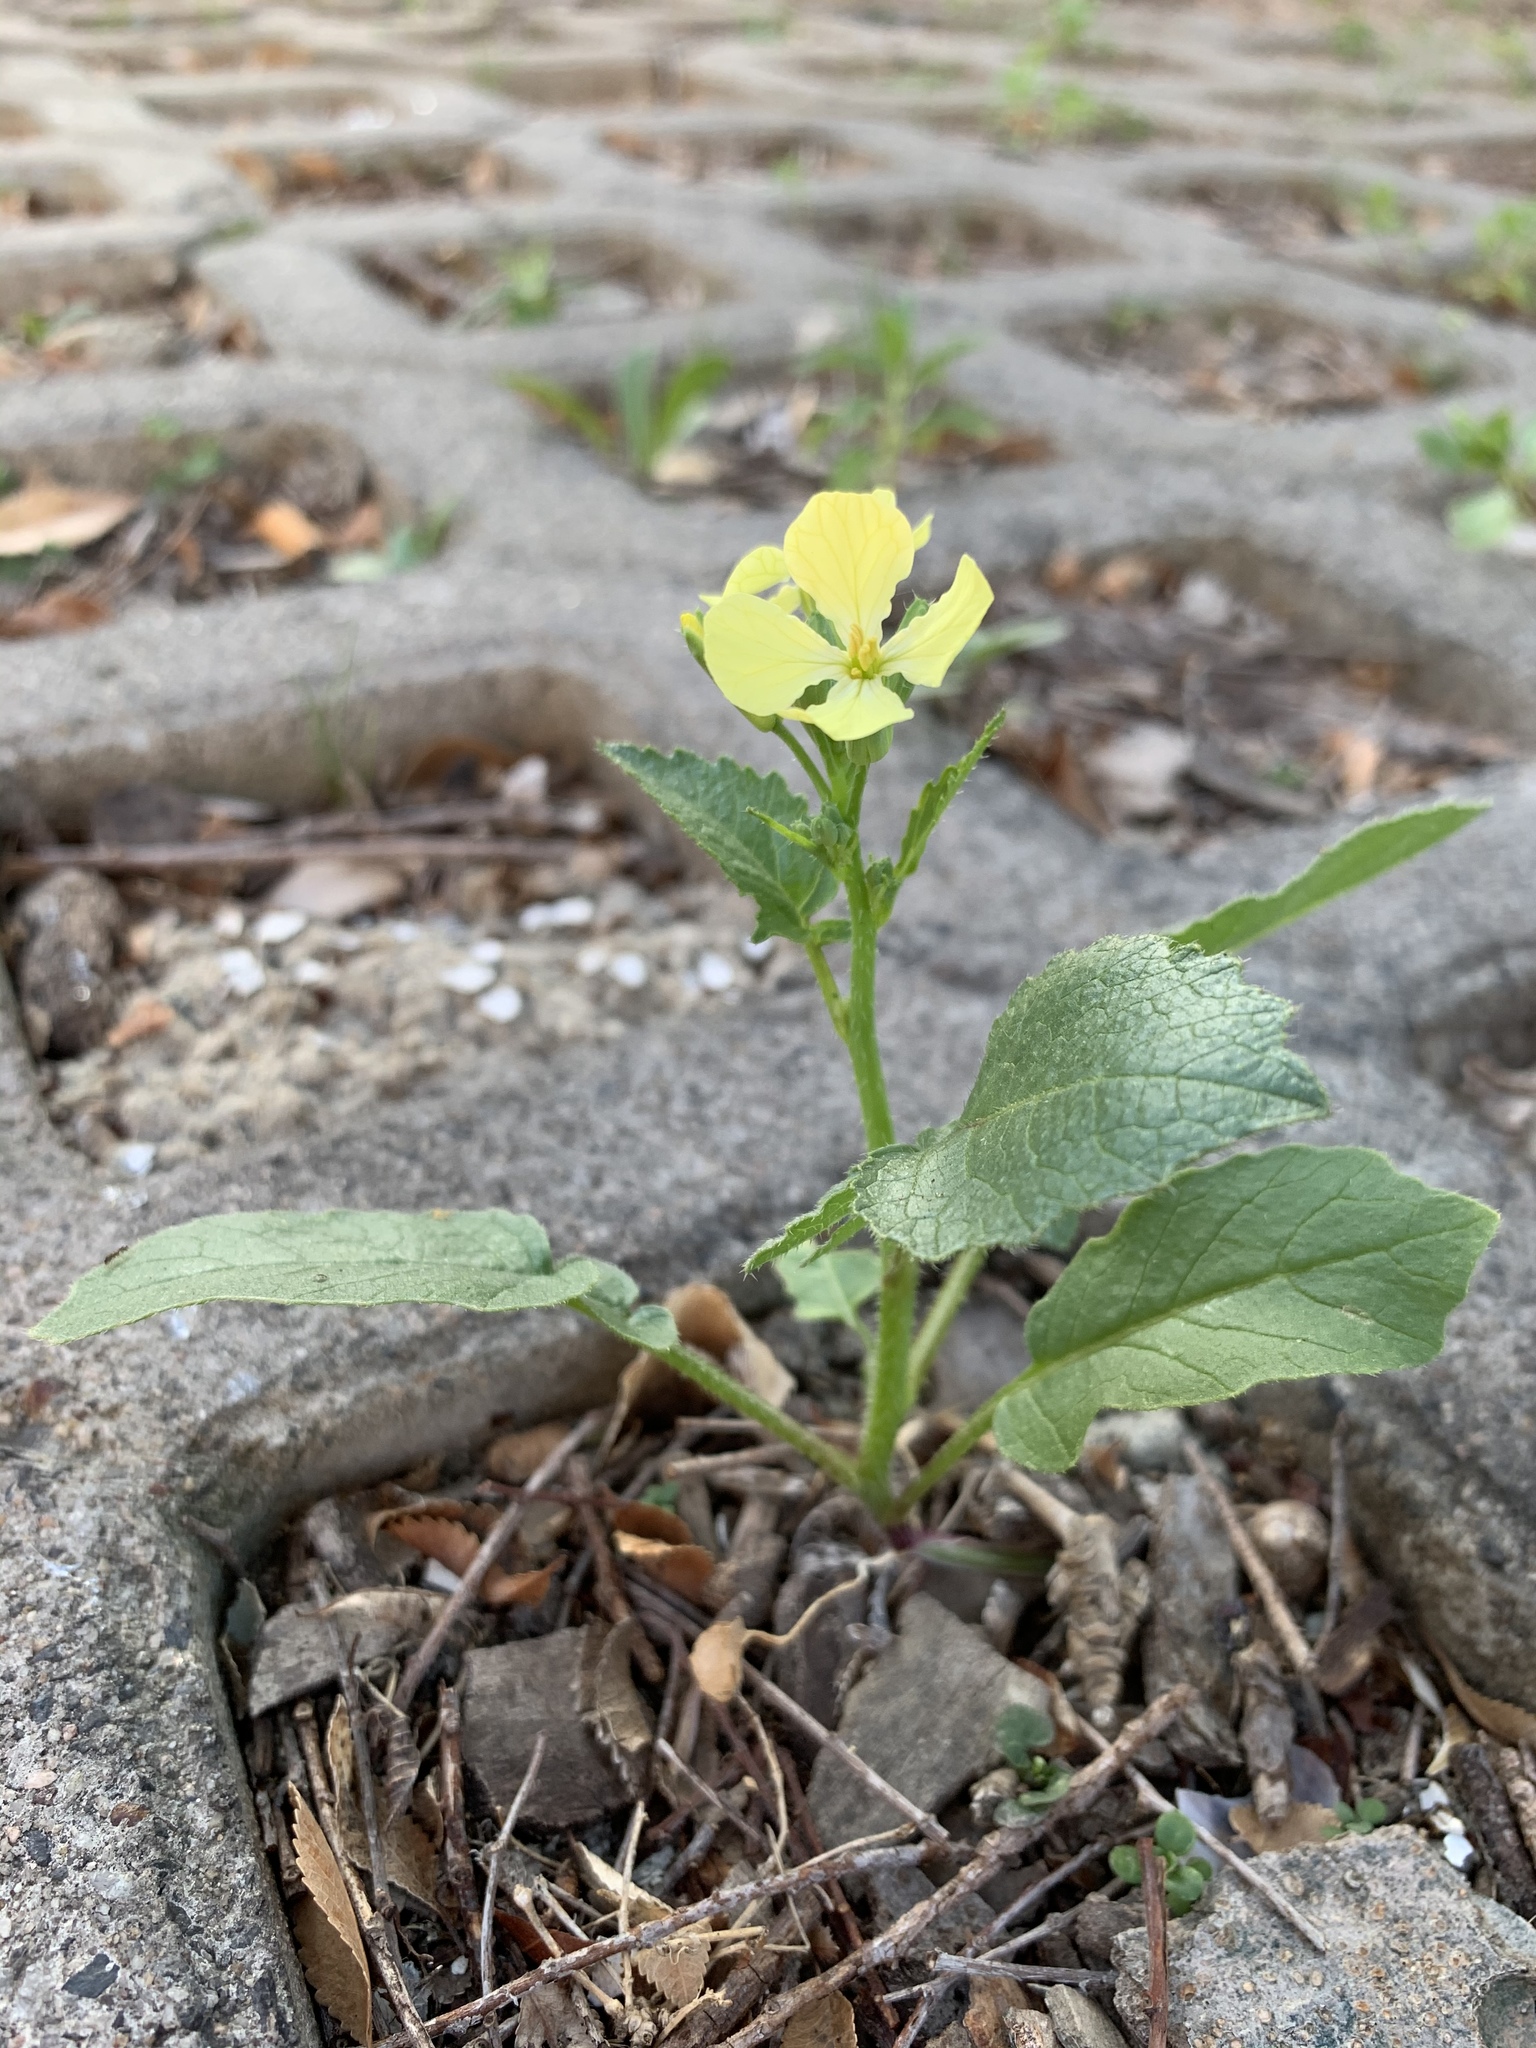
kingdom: Plantae
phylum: Tracheophyta
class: Magnoliopsida
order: Brassicales
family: Brassicaceae
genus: Raphanus
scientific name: Raphanus raphanistrum
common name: Wild radish
